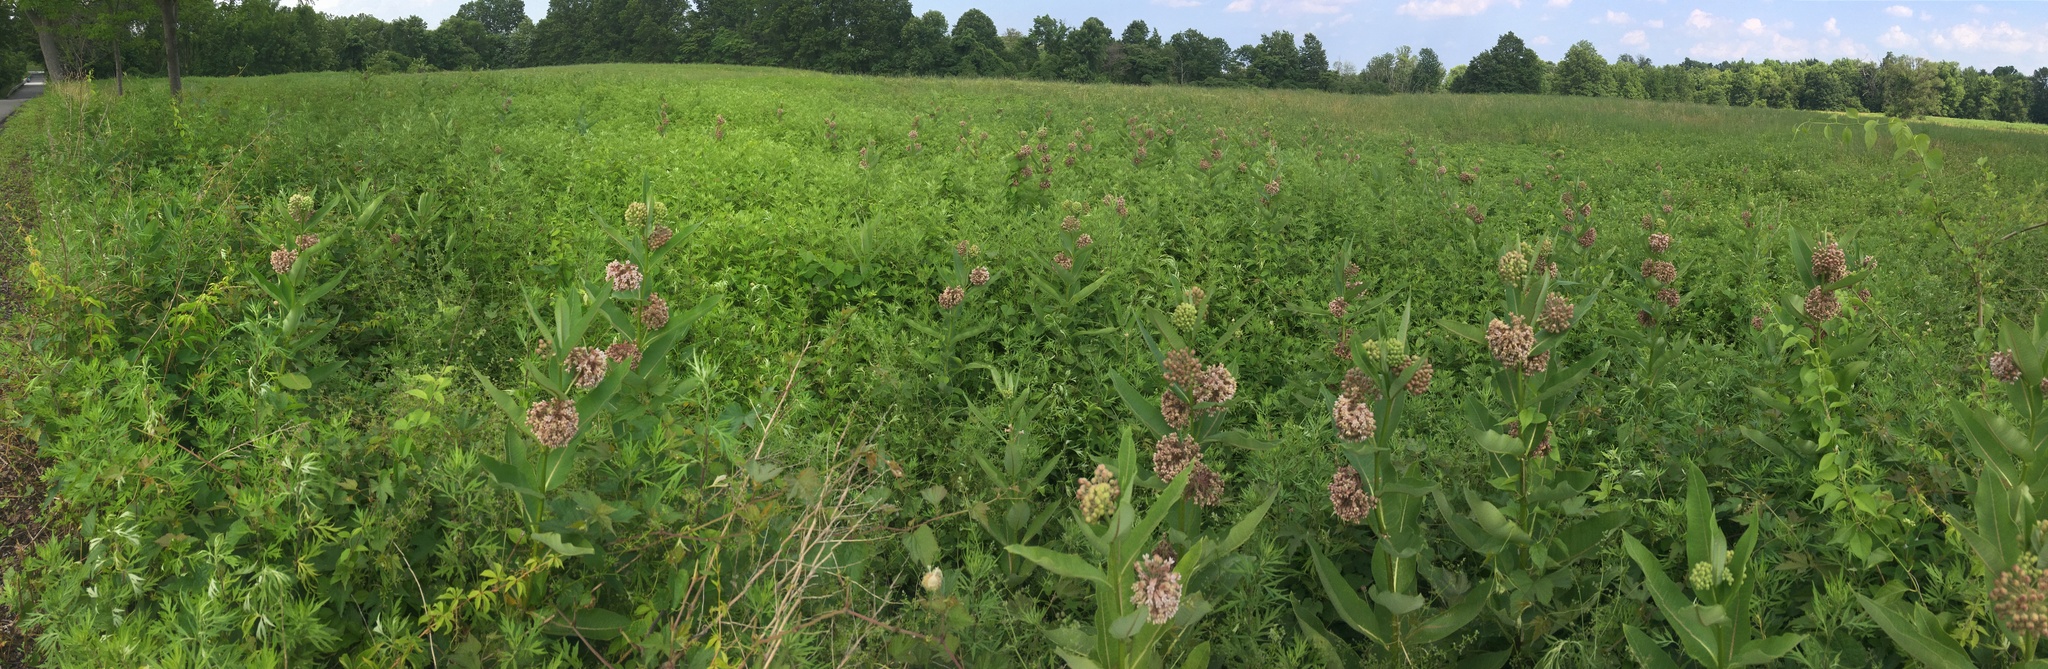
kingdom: Plantae
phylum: Tracheophyta
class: Magnoliopsida
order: Gentianales
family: Apocynaceae
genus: Asclepias
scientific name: Asclepias syriaca
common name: Common milkweed
